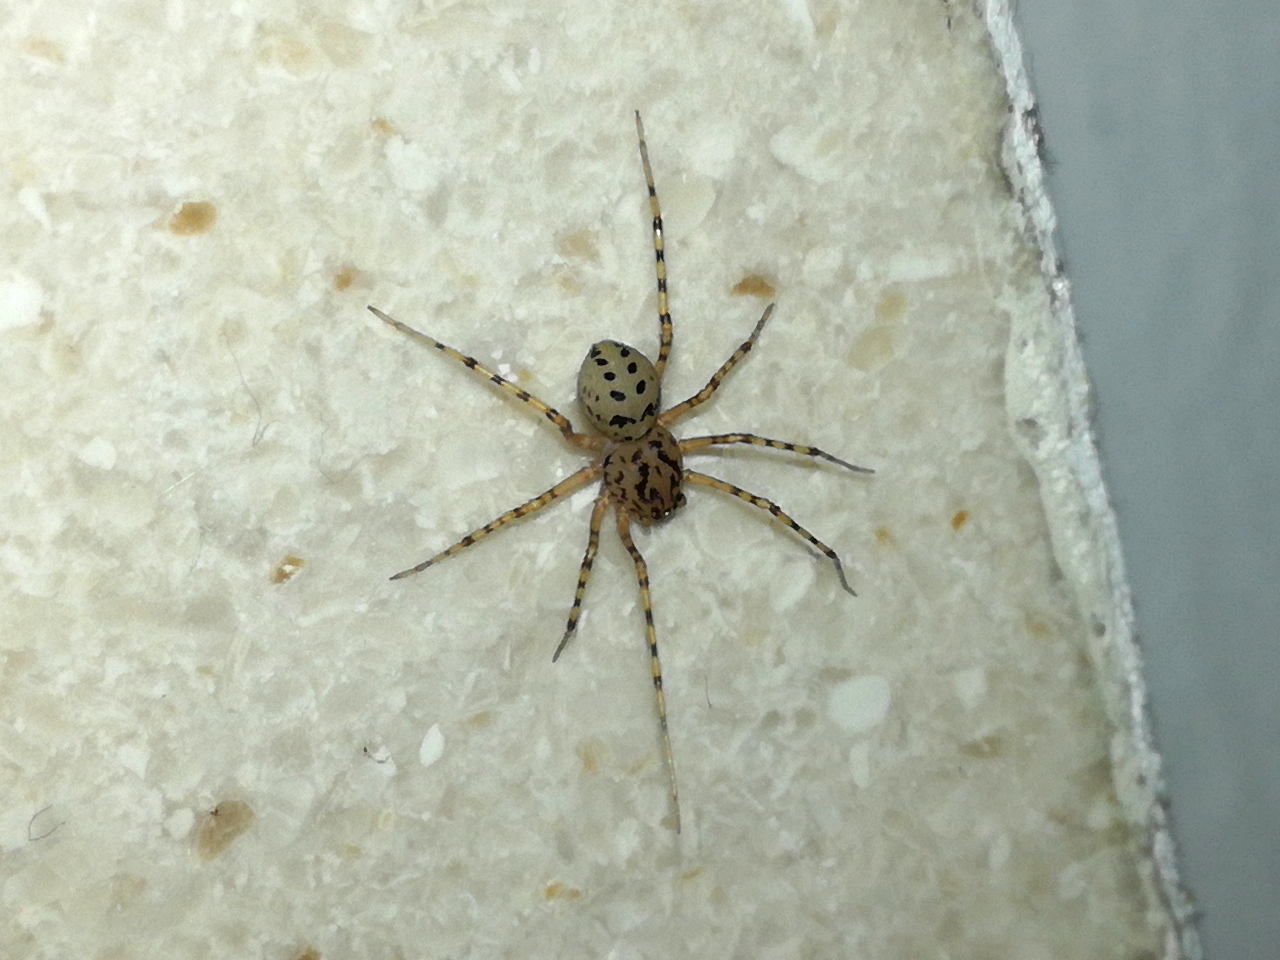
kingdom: Animalia
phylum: Arthropoda
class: Arachnida
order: Araneae
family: Scytodidae
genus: Scytodes
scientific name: Scytodes thoracica
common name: Spitting spider
